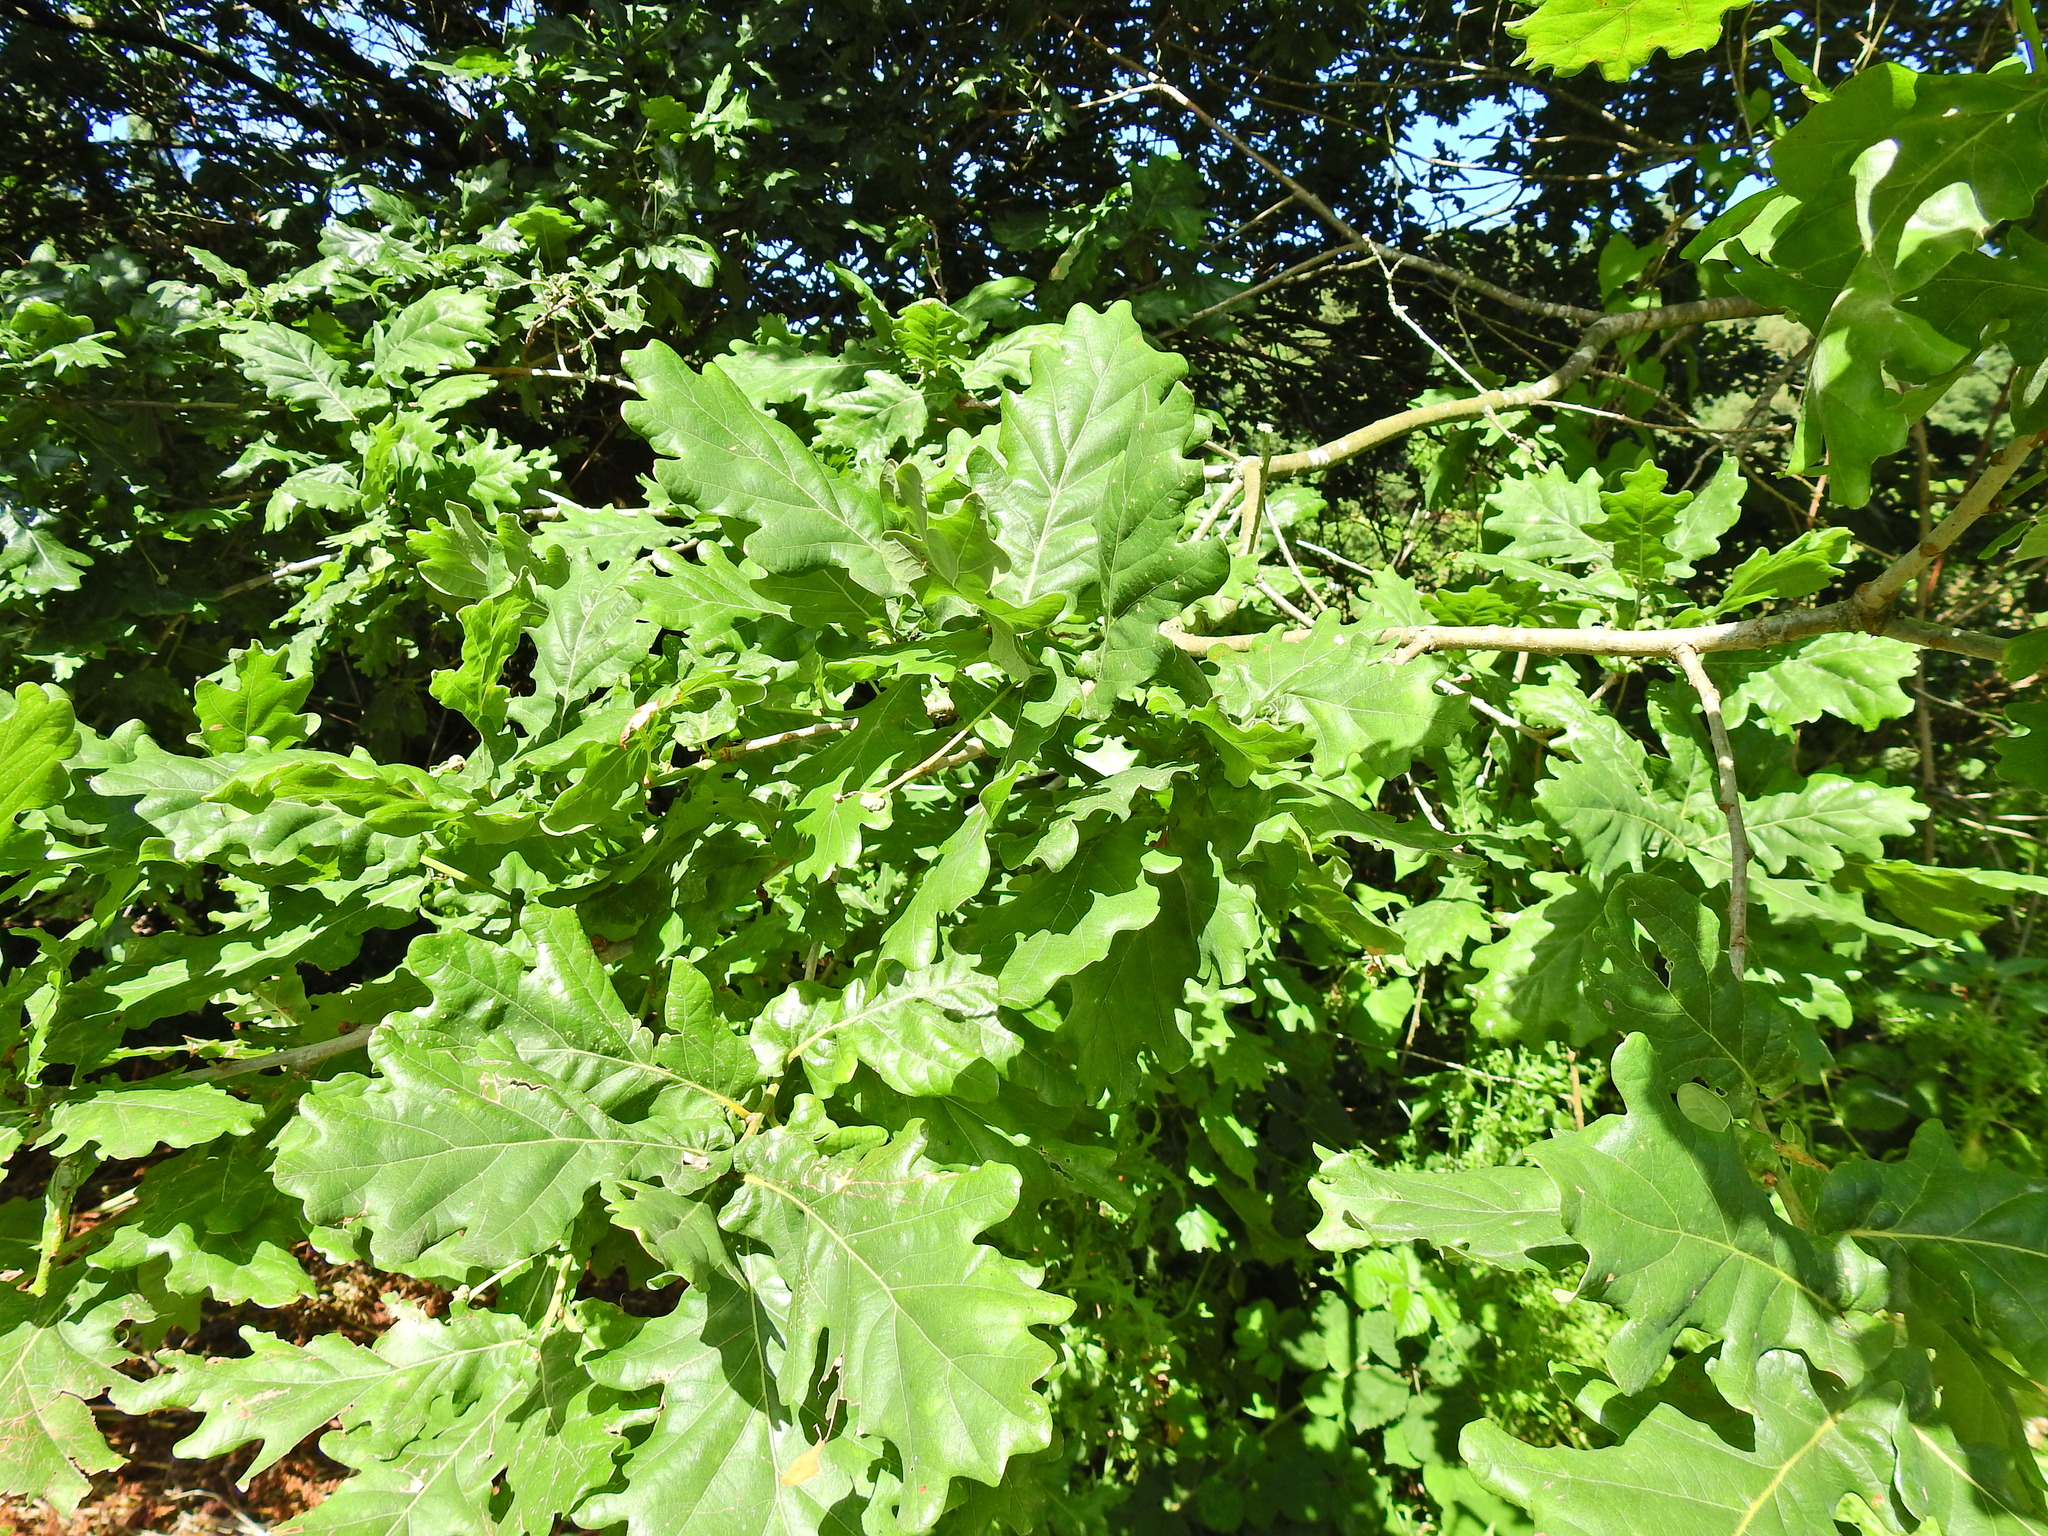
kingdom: Plantae
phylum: Tracheophyta
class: Magnoliopsida
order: Fagales
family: Fagaceae
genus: Quercus
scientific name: Quercus robur
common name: Pedunculate oak
